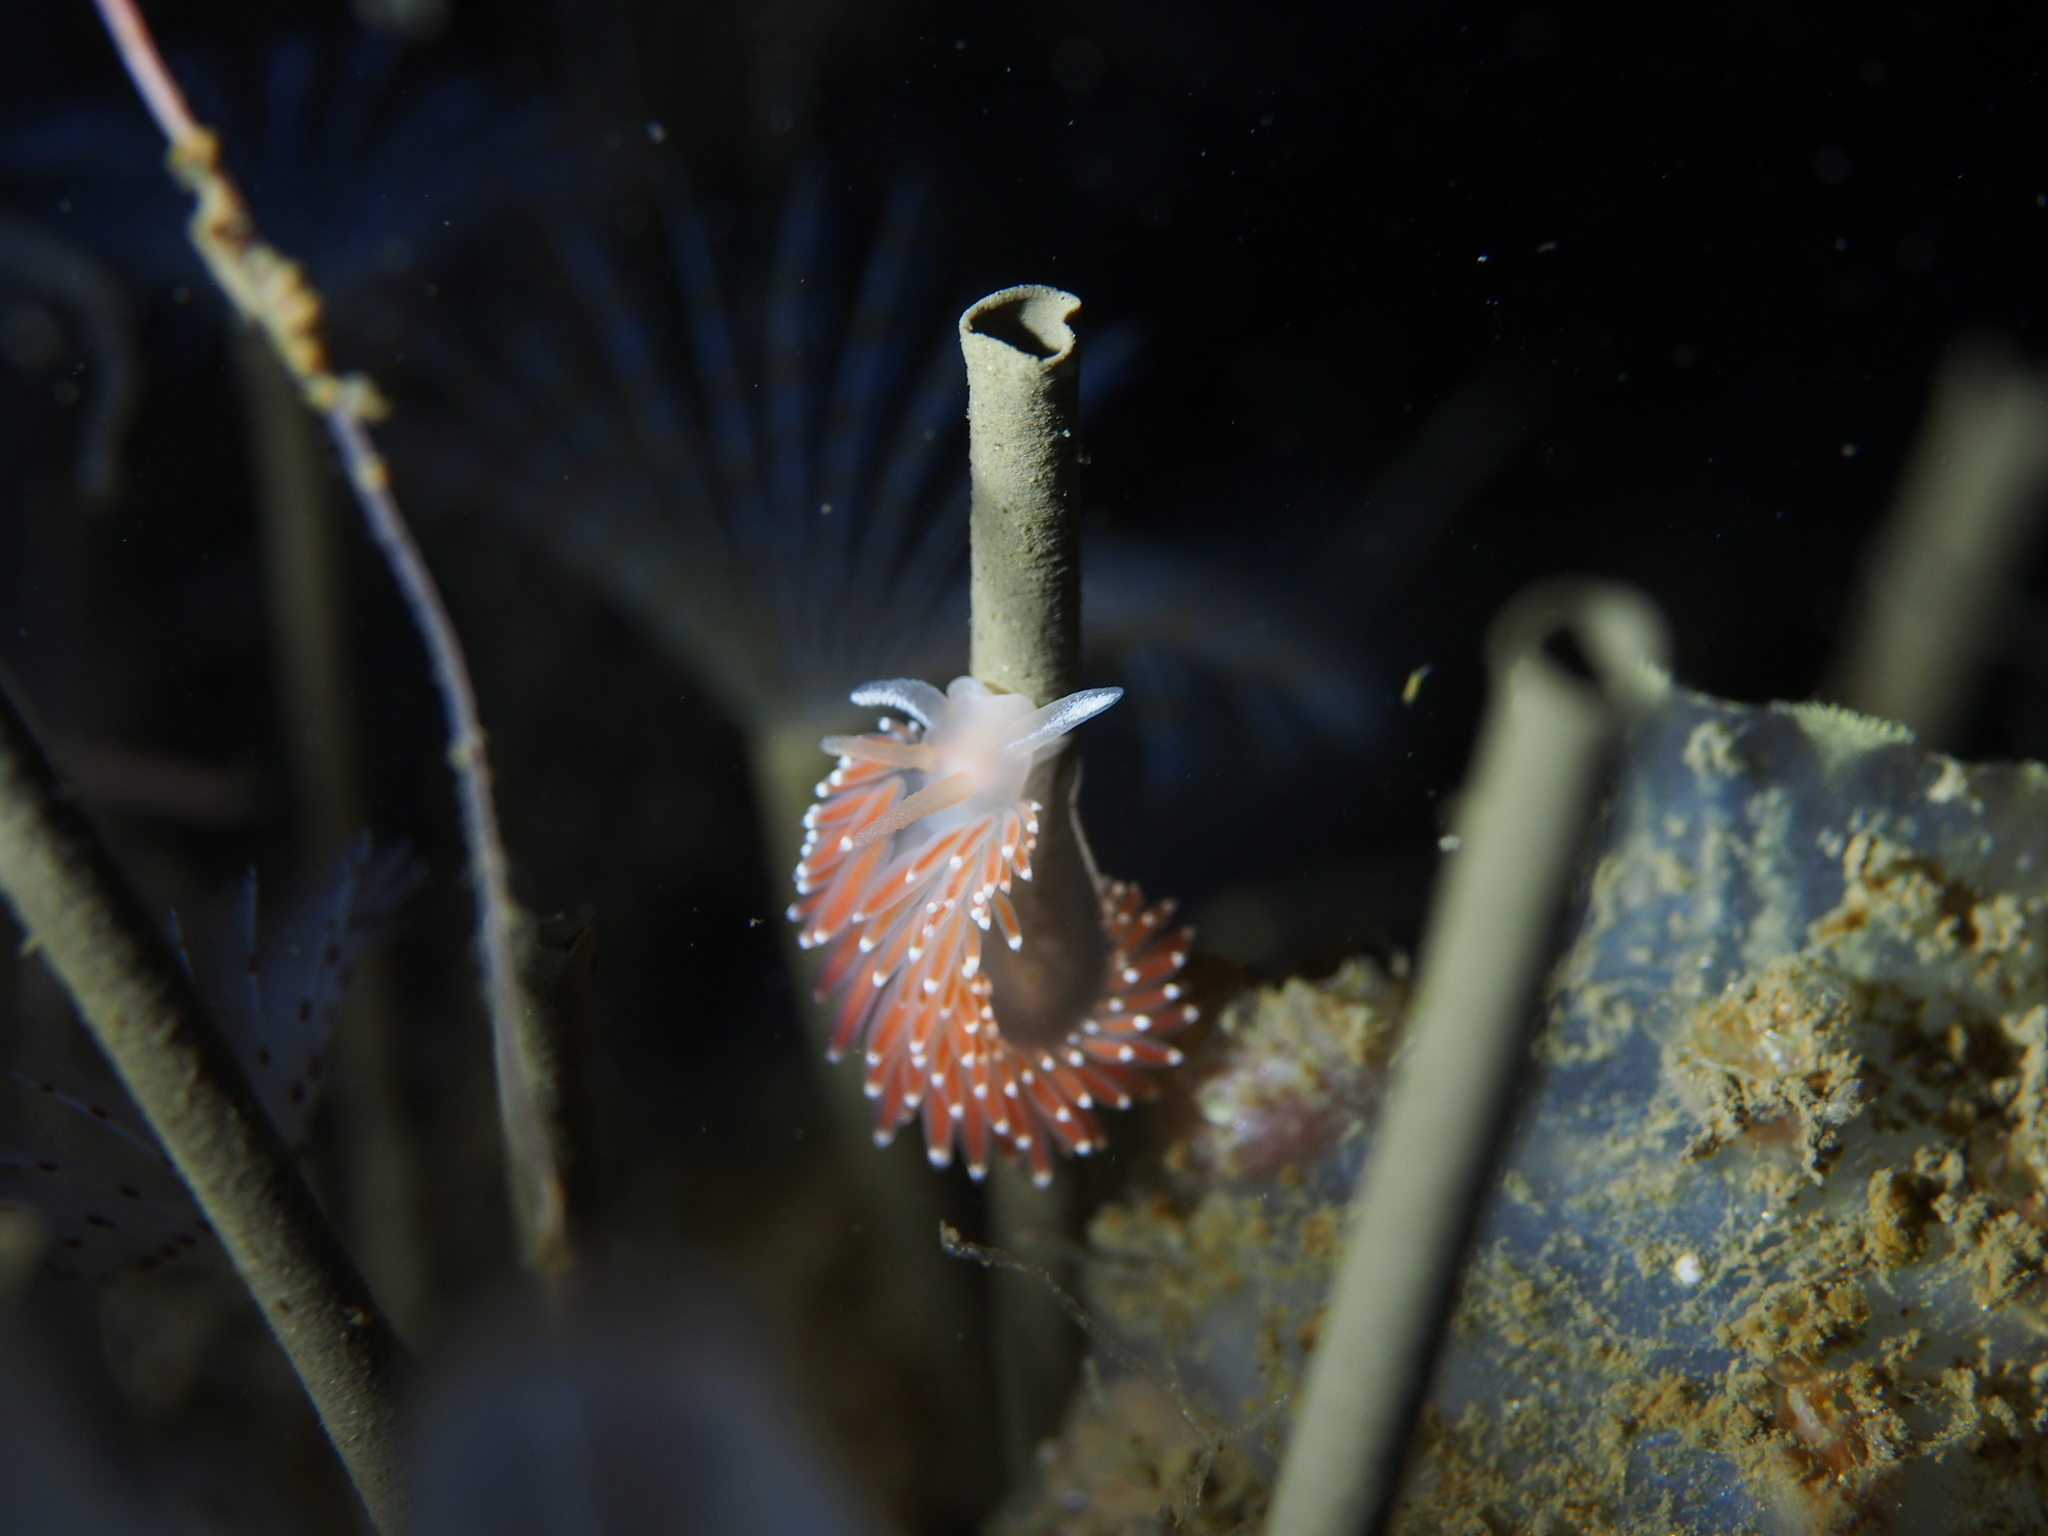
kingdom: Animalia
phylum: Mollusca
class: Gastropoda
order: Nudibranchia
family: Coryphellidae
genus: Coryphella
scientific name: Coryphella verrucosa
